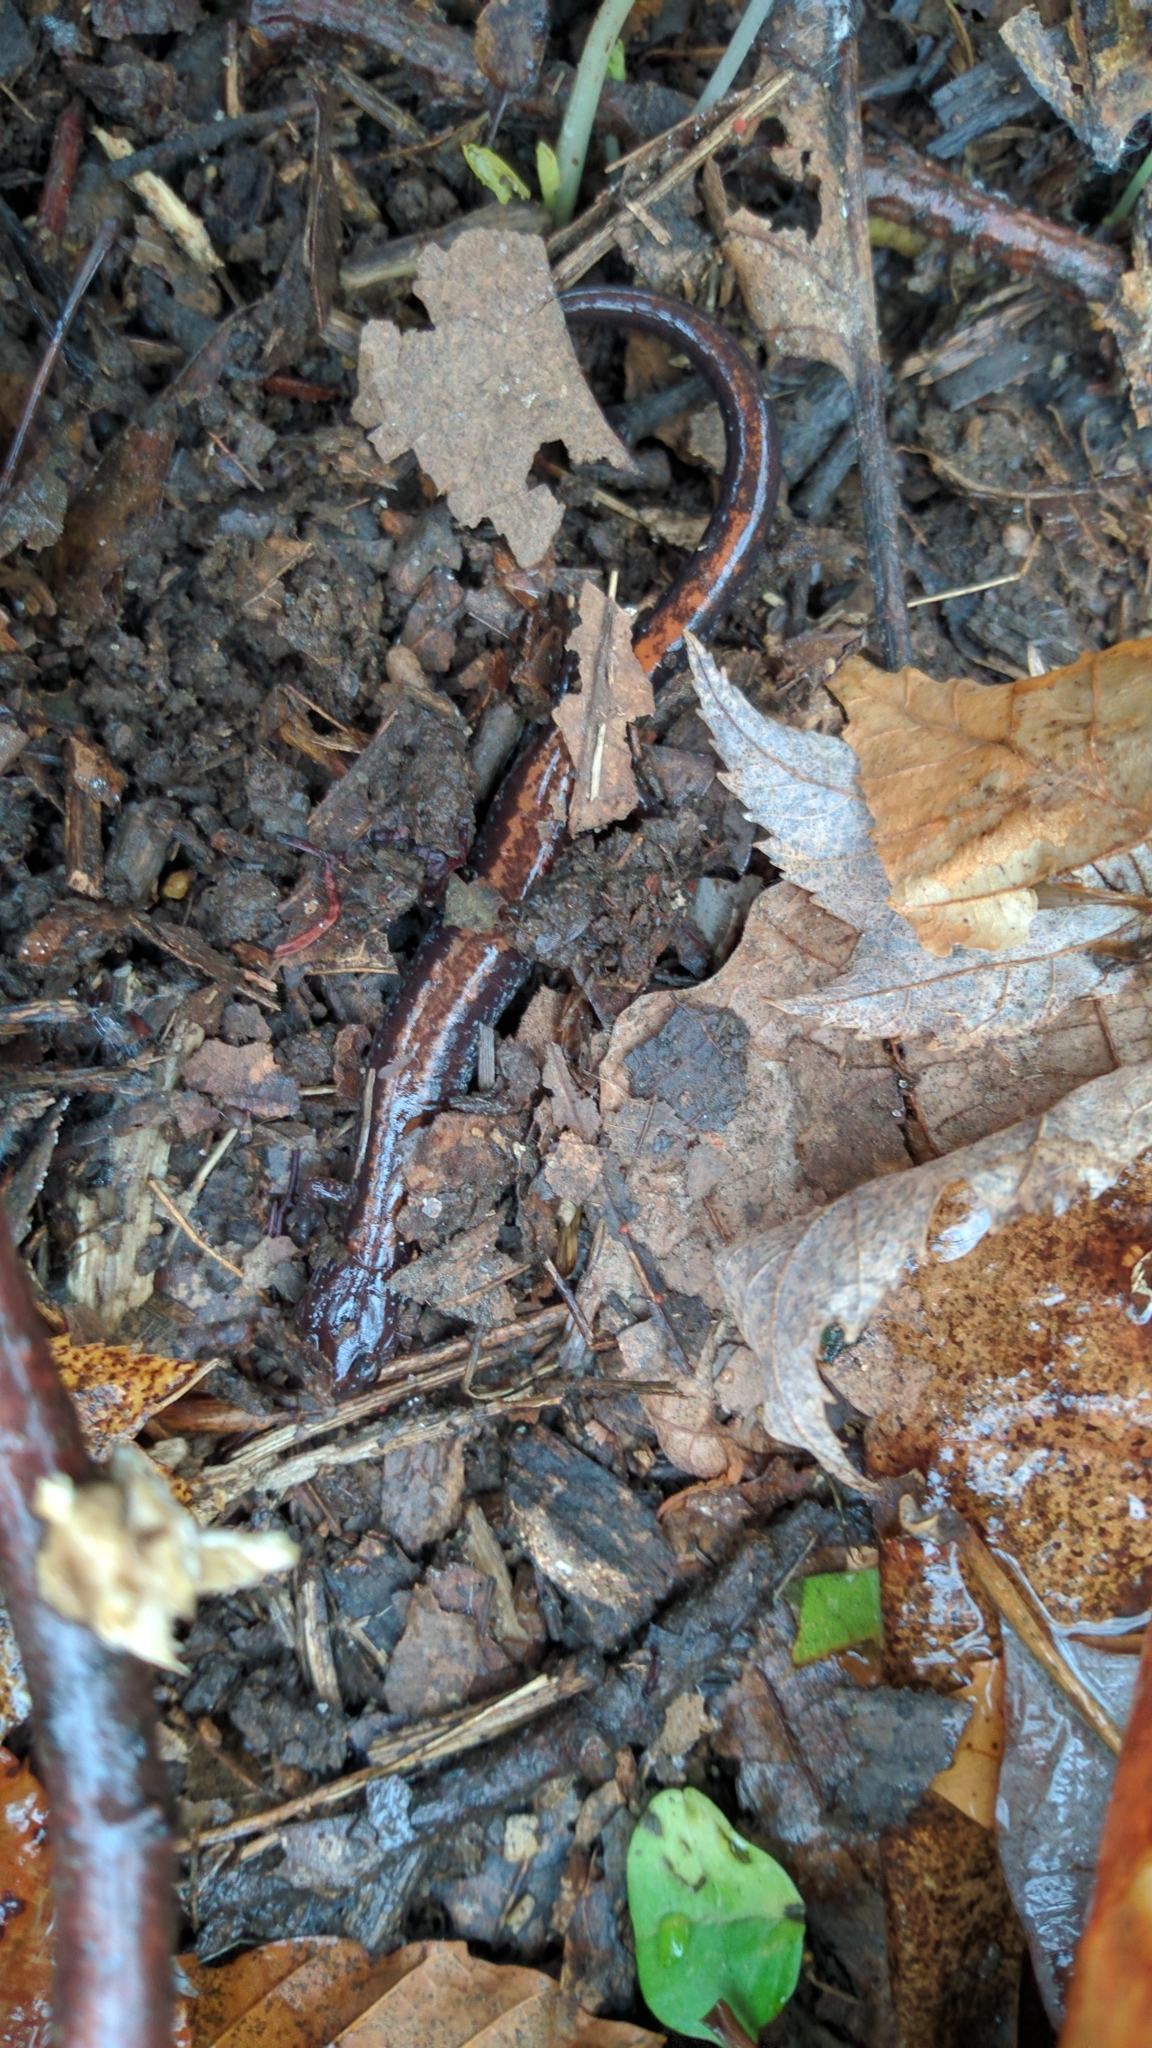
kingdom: Animalia
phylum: Chordata
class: Amphibia
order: Caudata
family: Plethodontidae
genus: Plethodon
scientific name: Plethodon cinereus
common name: Redback salamander
